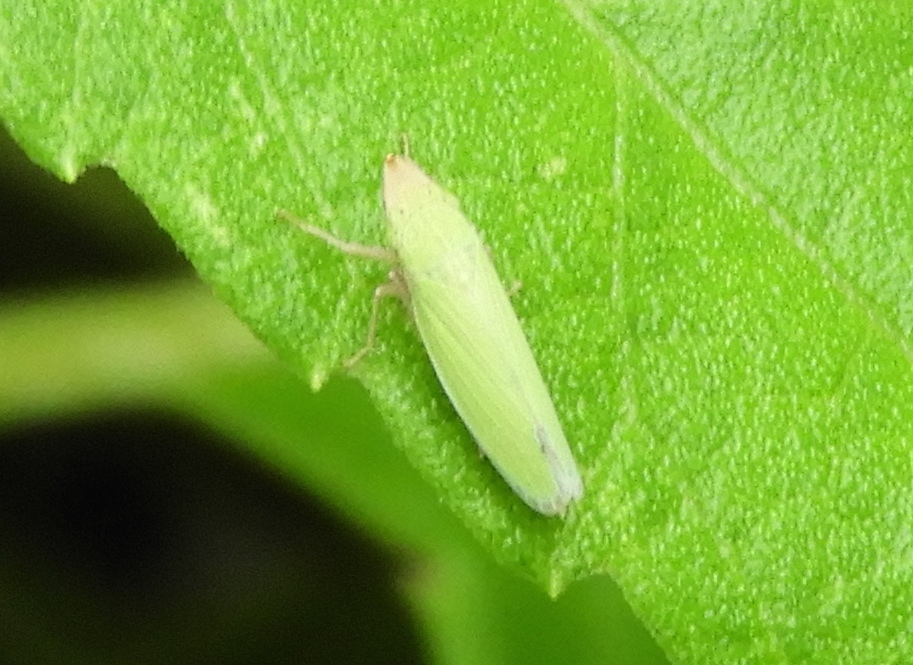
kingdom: Animalia
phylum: Arthropoda
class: Insecta
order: Hemiptera
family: Cicadellidae
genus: Draeculacephala
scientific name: Draeculacephala
